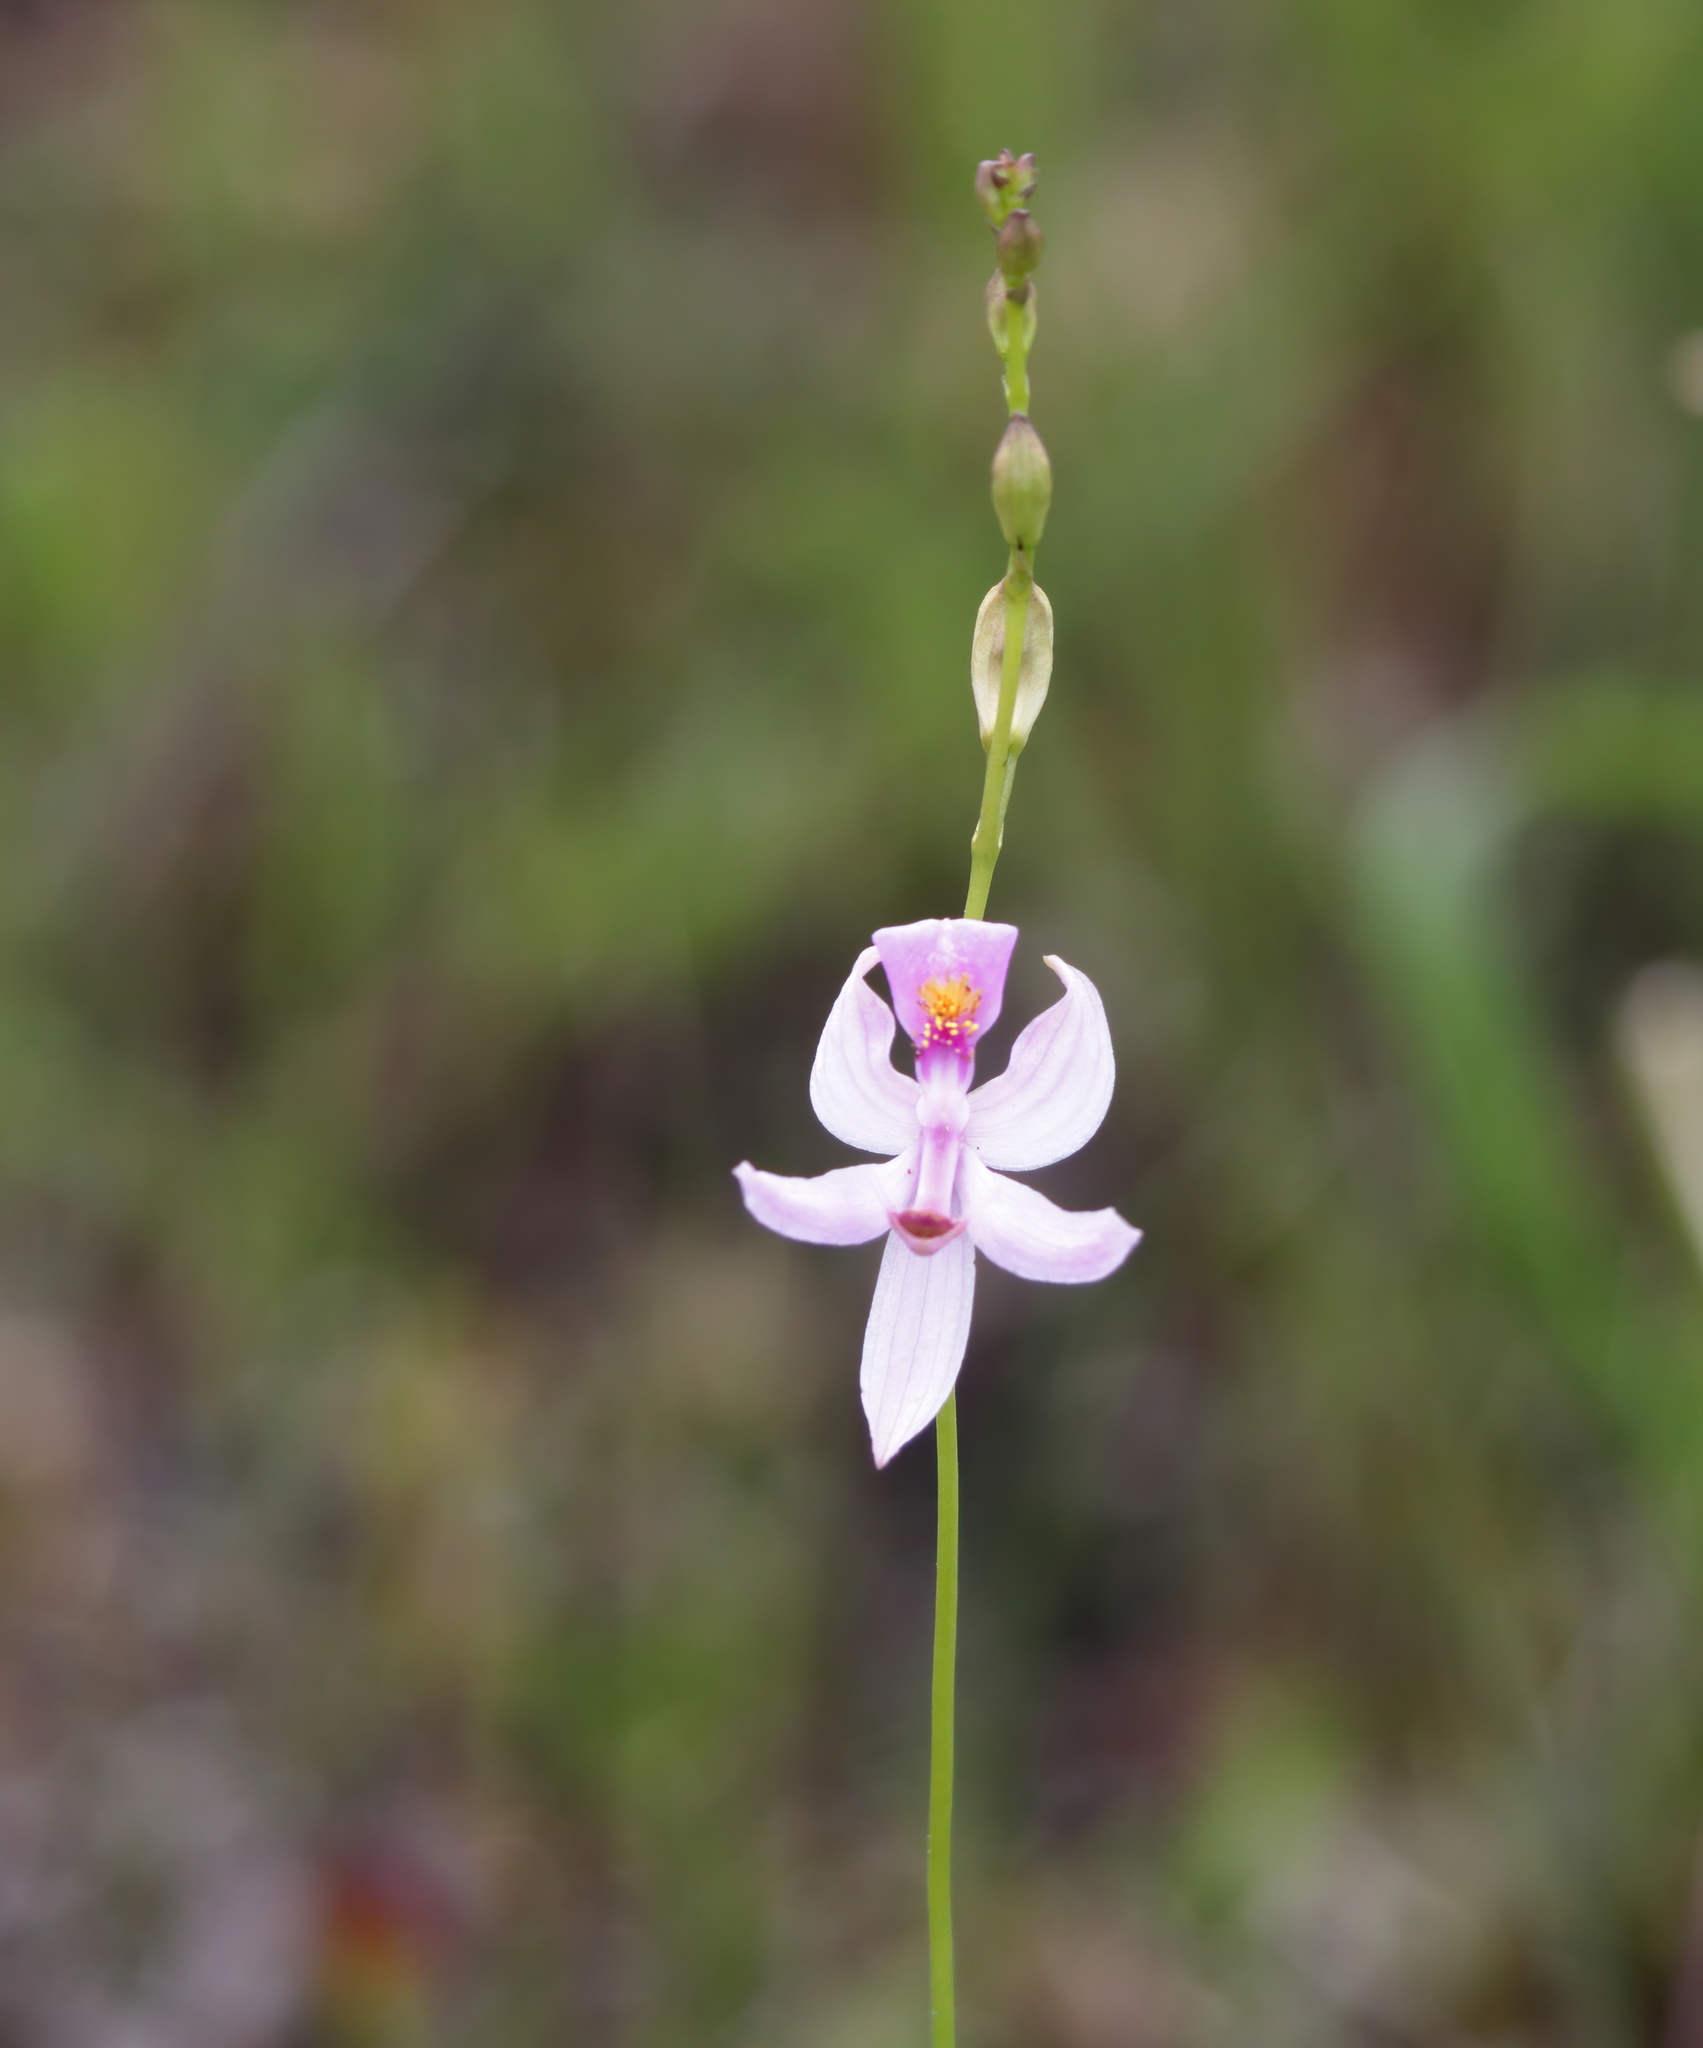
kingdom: Plantae
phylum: Tracheophyta
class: Liliopsida
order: Asparagales
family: Orchidaceae
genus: Calopogon
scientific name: Calopogon pallidus
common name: Pale grasspink
